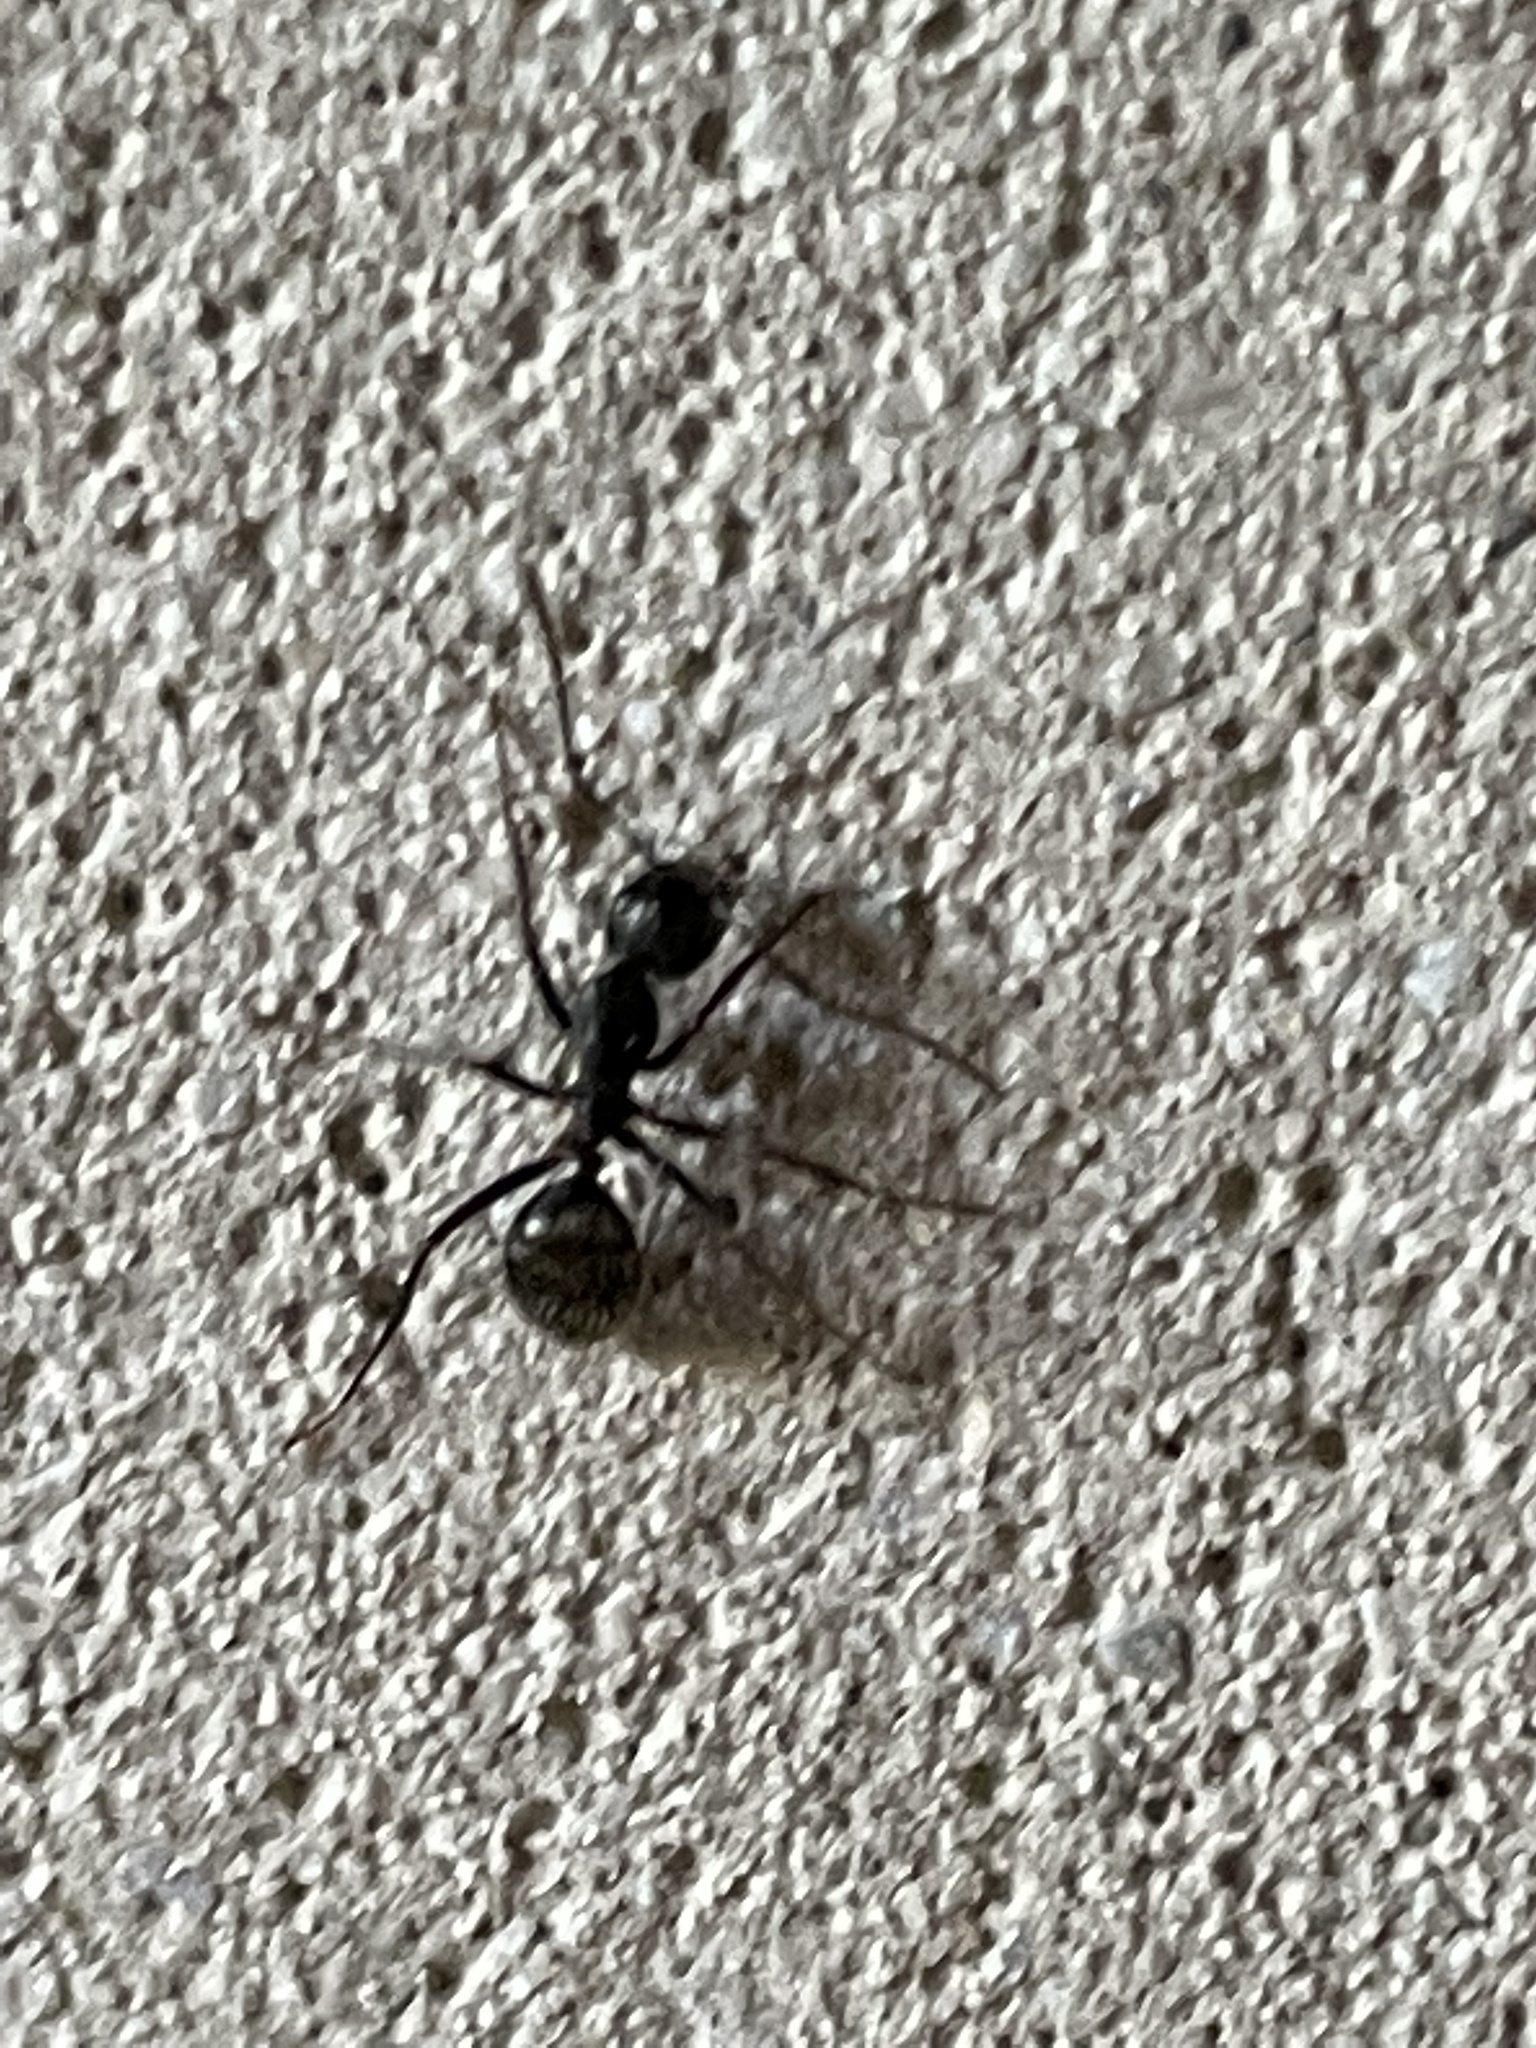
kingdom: Animalia
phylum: Arthropoda
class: Insecta
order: Hymenoptera
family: Formicidae
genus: Camponotus
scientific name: Camponotus pennsylvanicus
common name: Black carpenter ant
